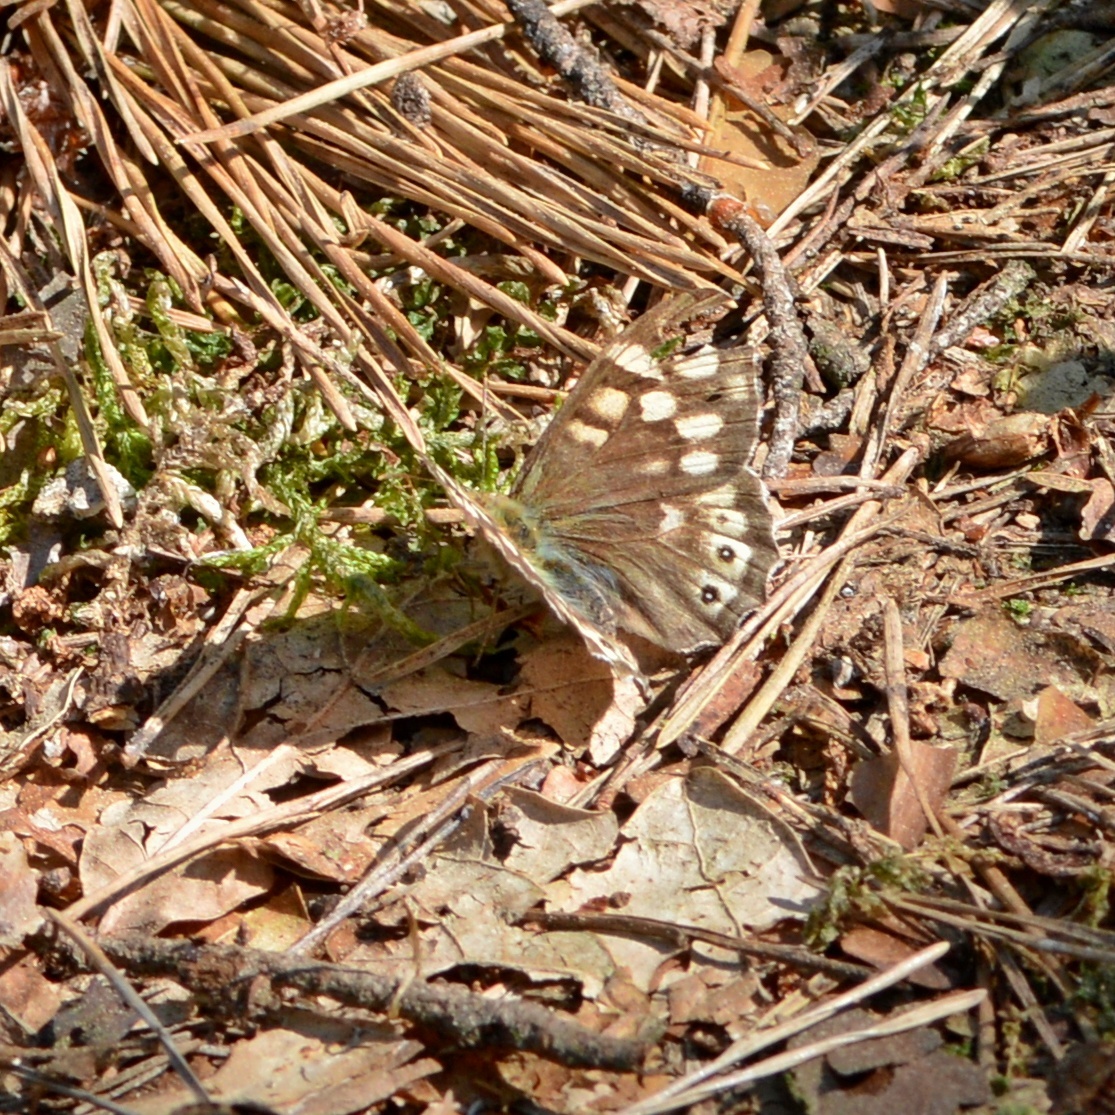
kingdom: Animalia
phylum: Arthropoda
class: Insecta
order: Lepidoptera
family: Nymphalidae
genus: Pararge
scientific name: Pararge aegeria
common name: Speckled wood
